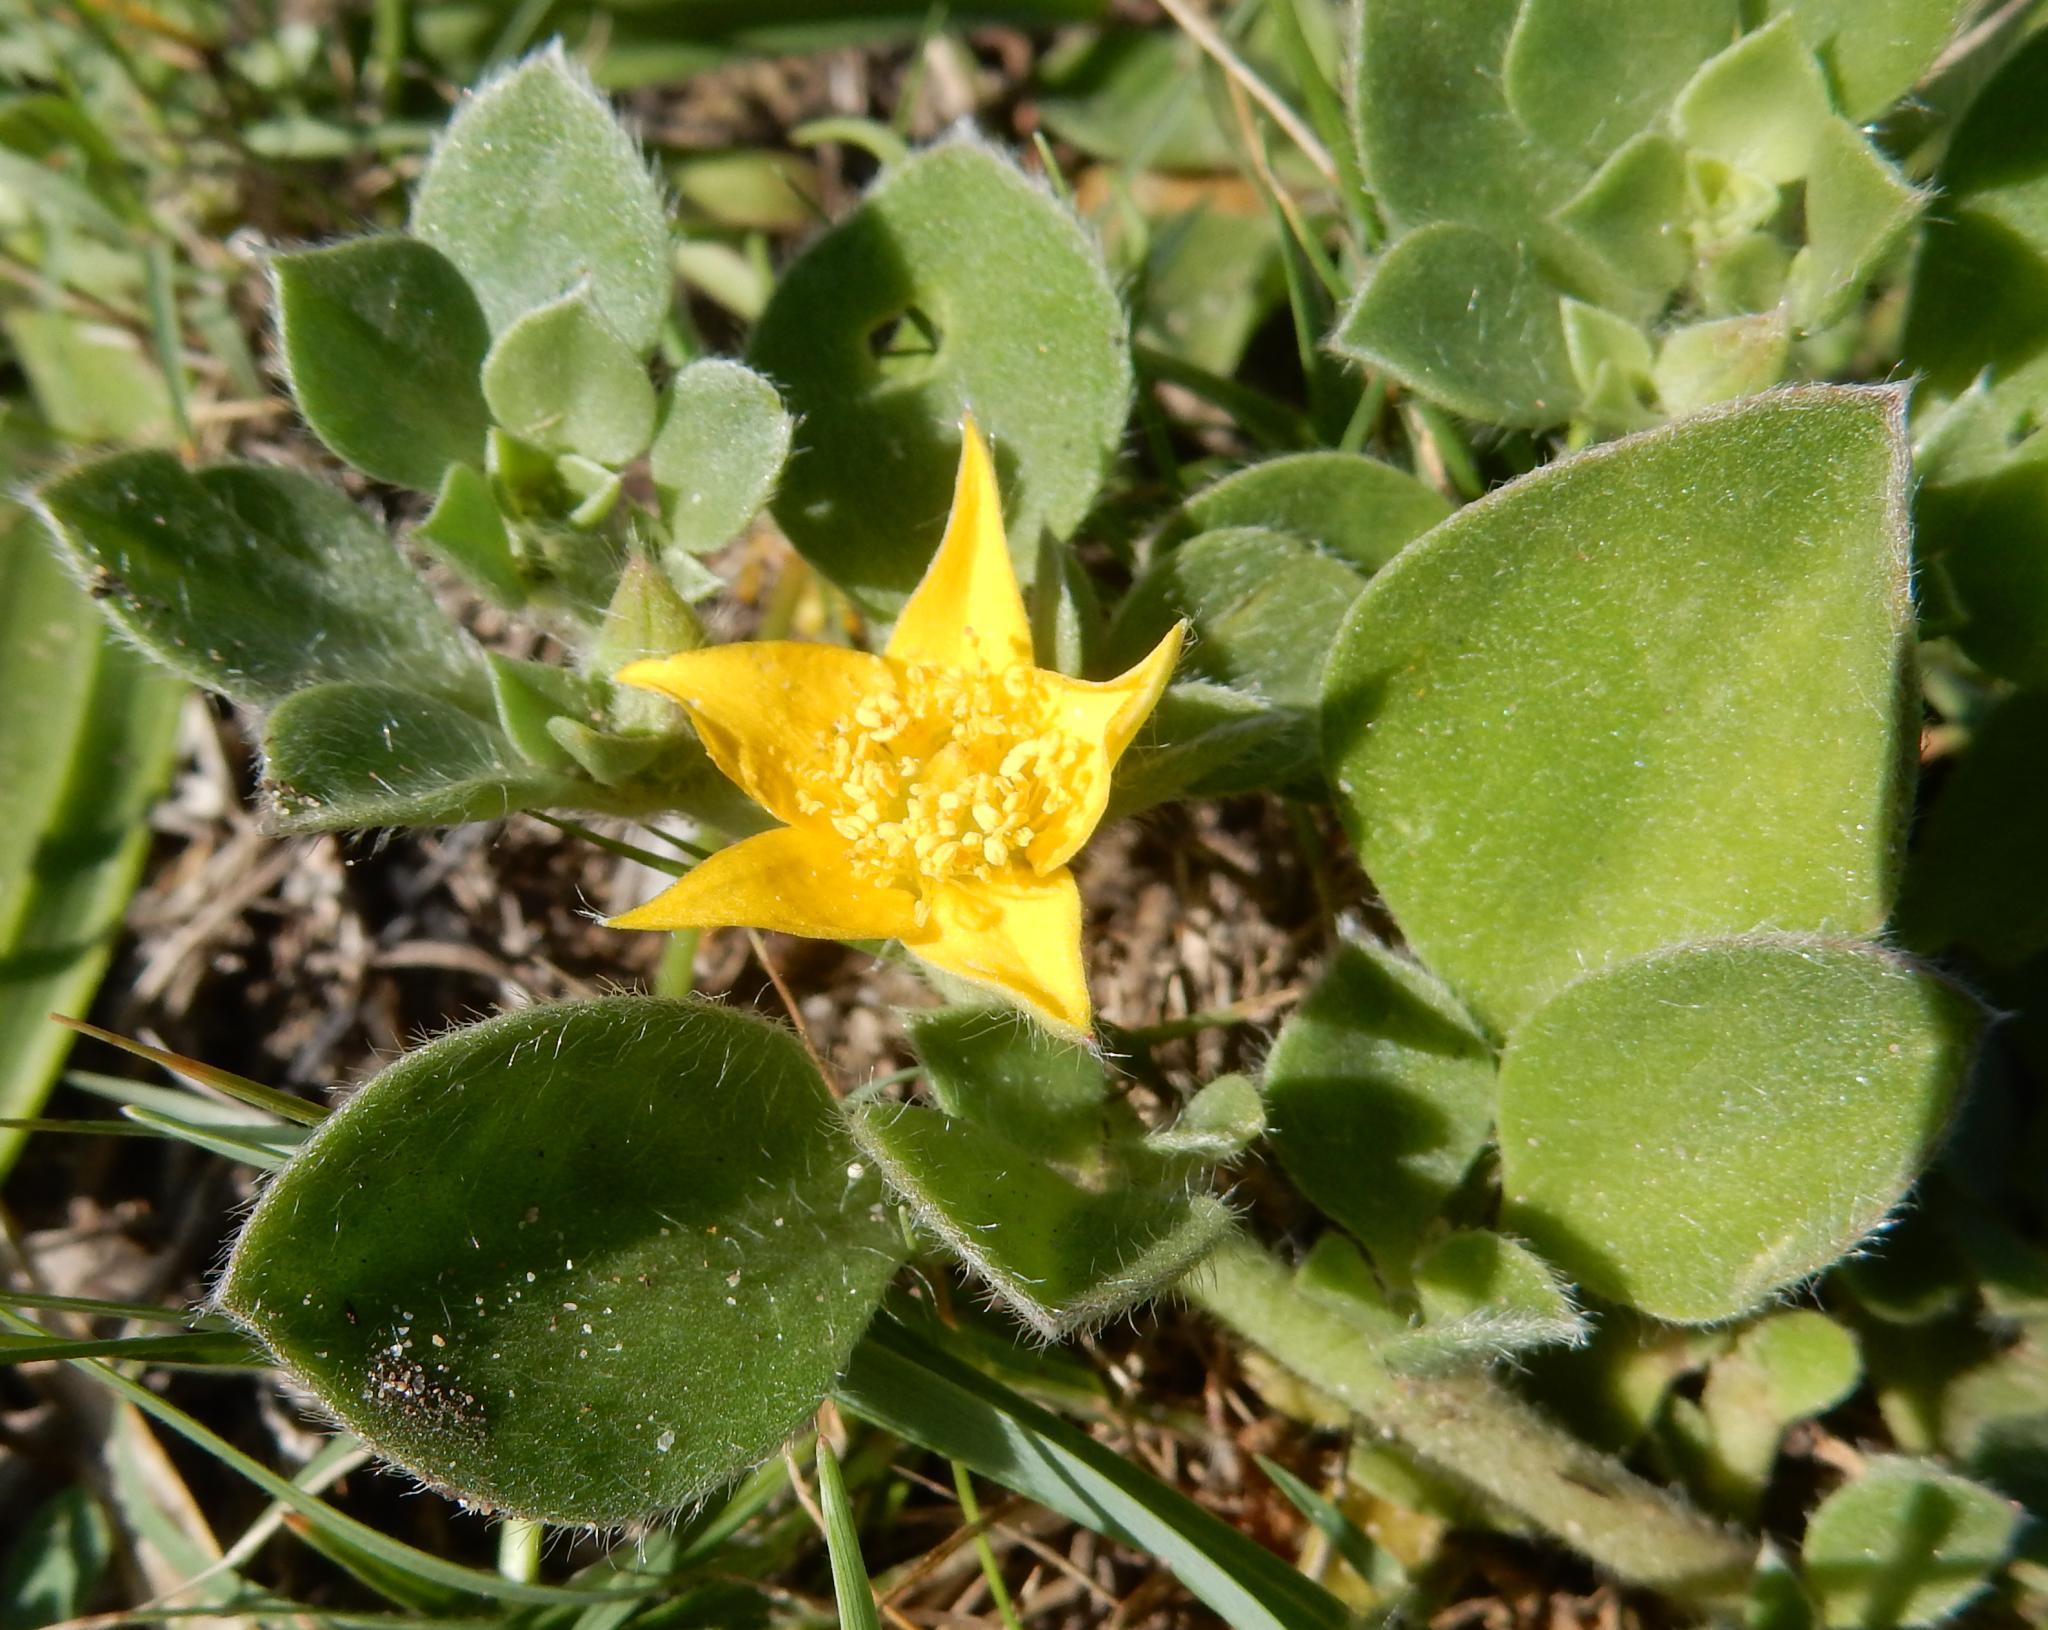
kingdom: Plantae
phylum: Tracheophyta
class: Magnoliopsida
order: Caryophyllales
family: Aizoaceae
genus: Aizoon
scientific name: Aizoon glinoides
